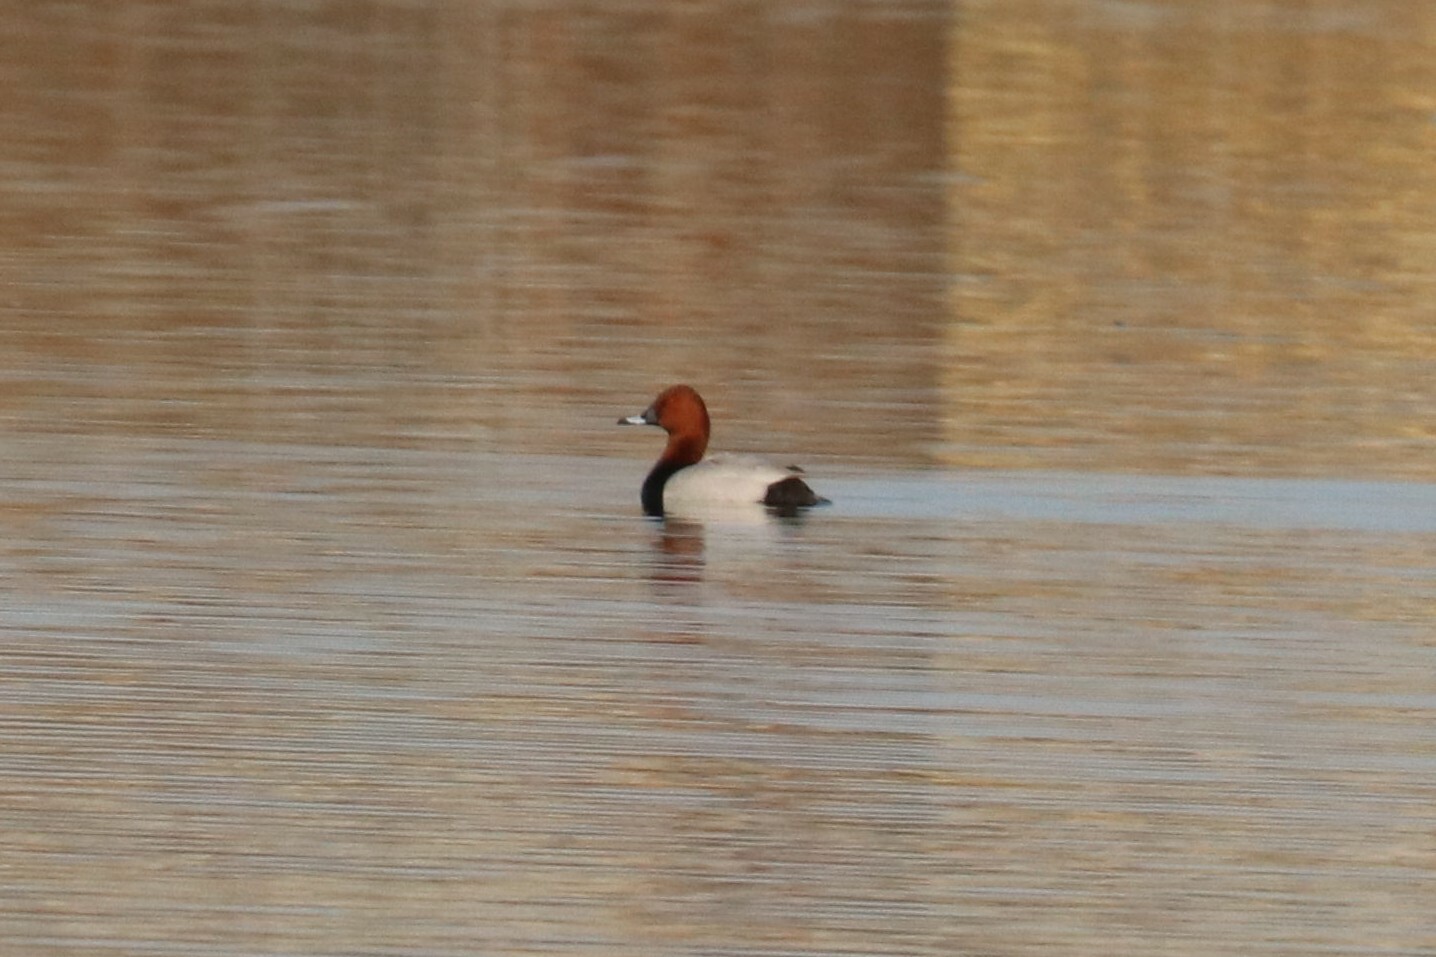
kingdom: Animalia
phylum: Chordata
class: Aves
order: Anseriformes
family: Anatidae
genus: Aythya
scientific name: Aythya ferina
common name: Common pochard
